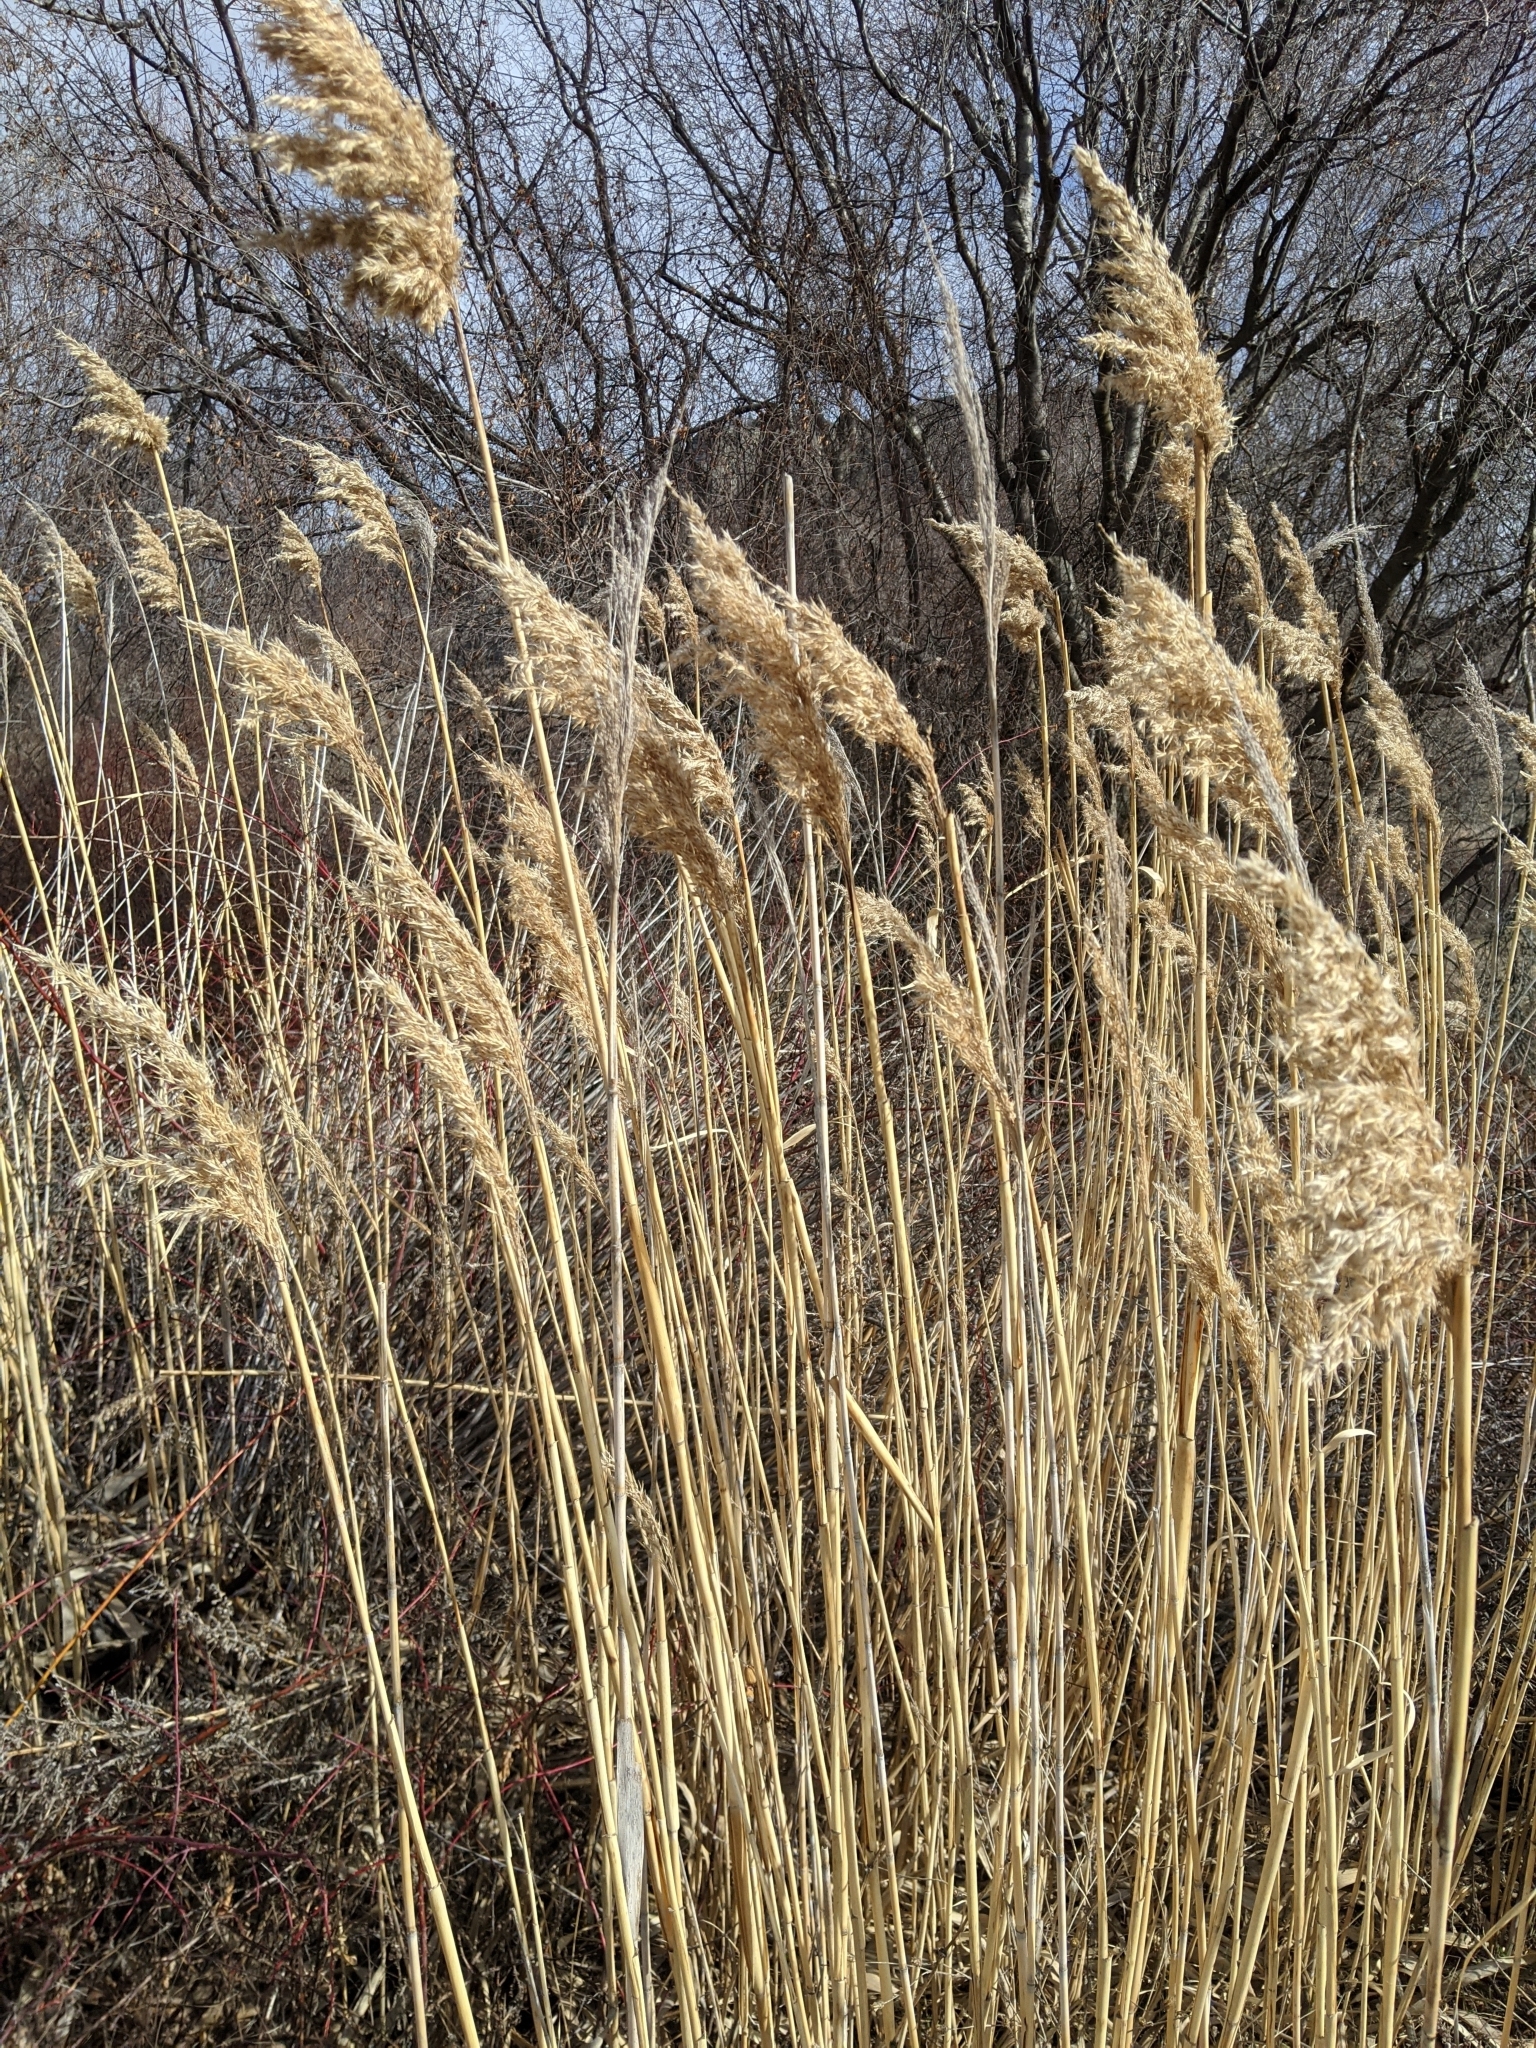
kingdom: Plantae
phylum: Tracheophyta
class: Liliopsida
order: Poales
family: Poaceae
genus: Phragmites
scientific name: Phragmites australis
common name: Common reed
